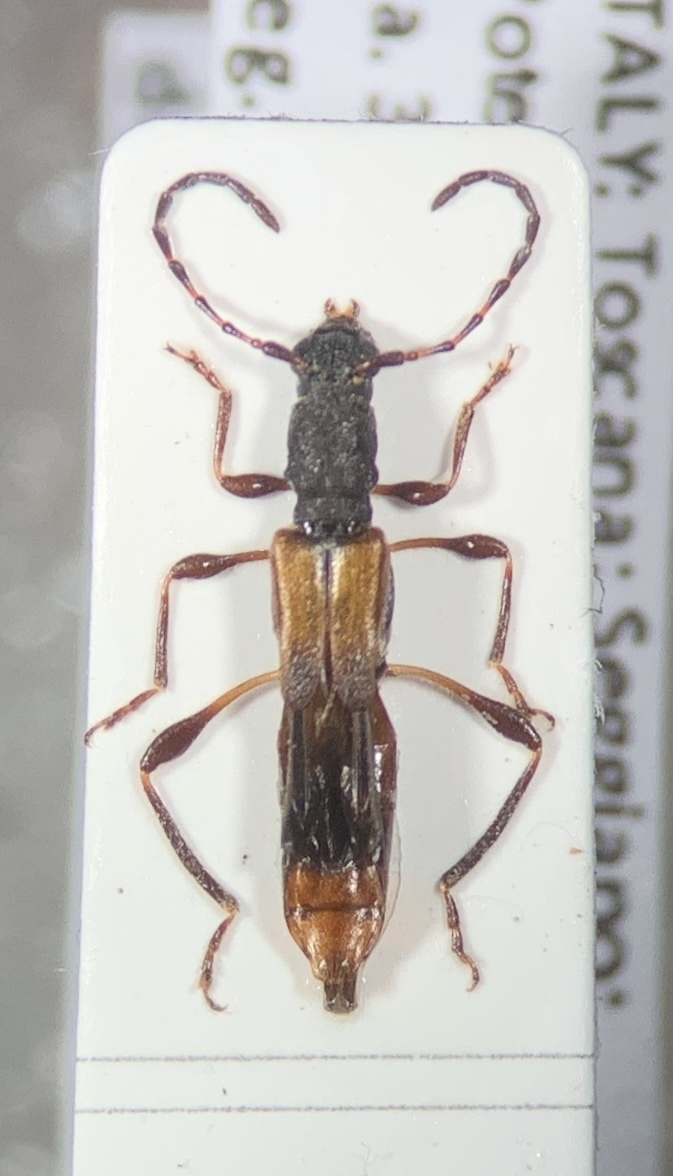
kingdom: Animalia
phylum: Arthropoda
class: Insecta
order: Coleoptera
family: Cerambycidae
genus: Dolocerus
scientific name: Dolocerus reichii
